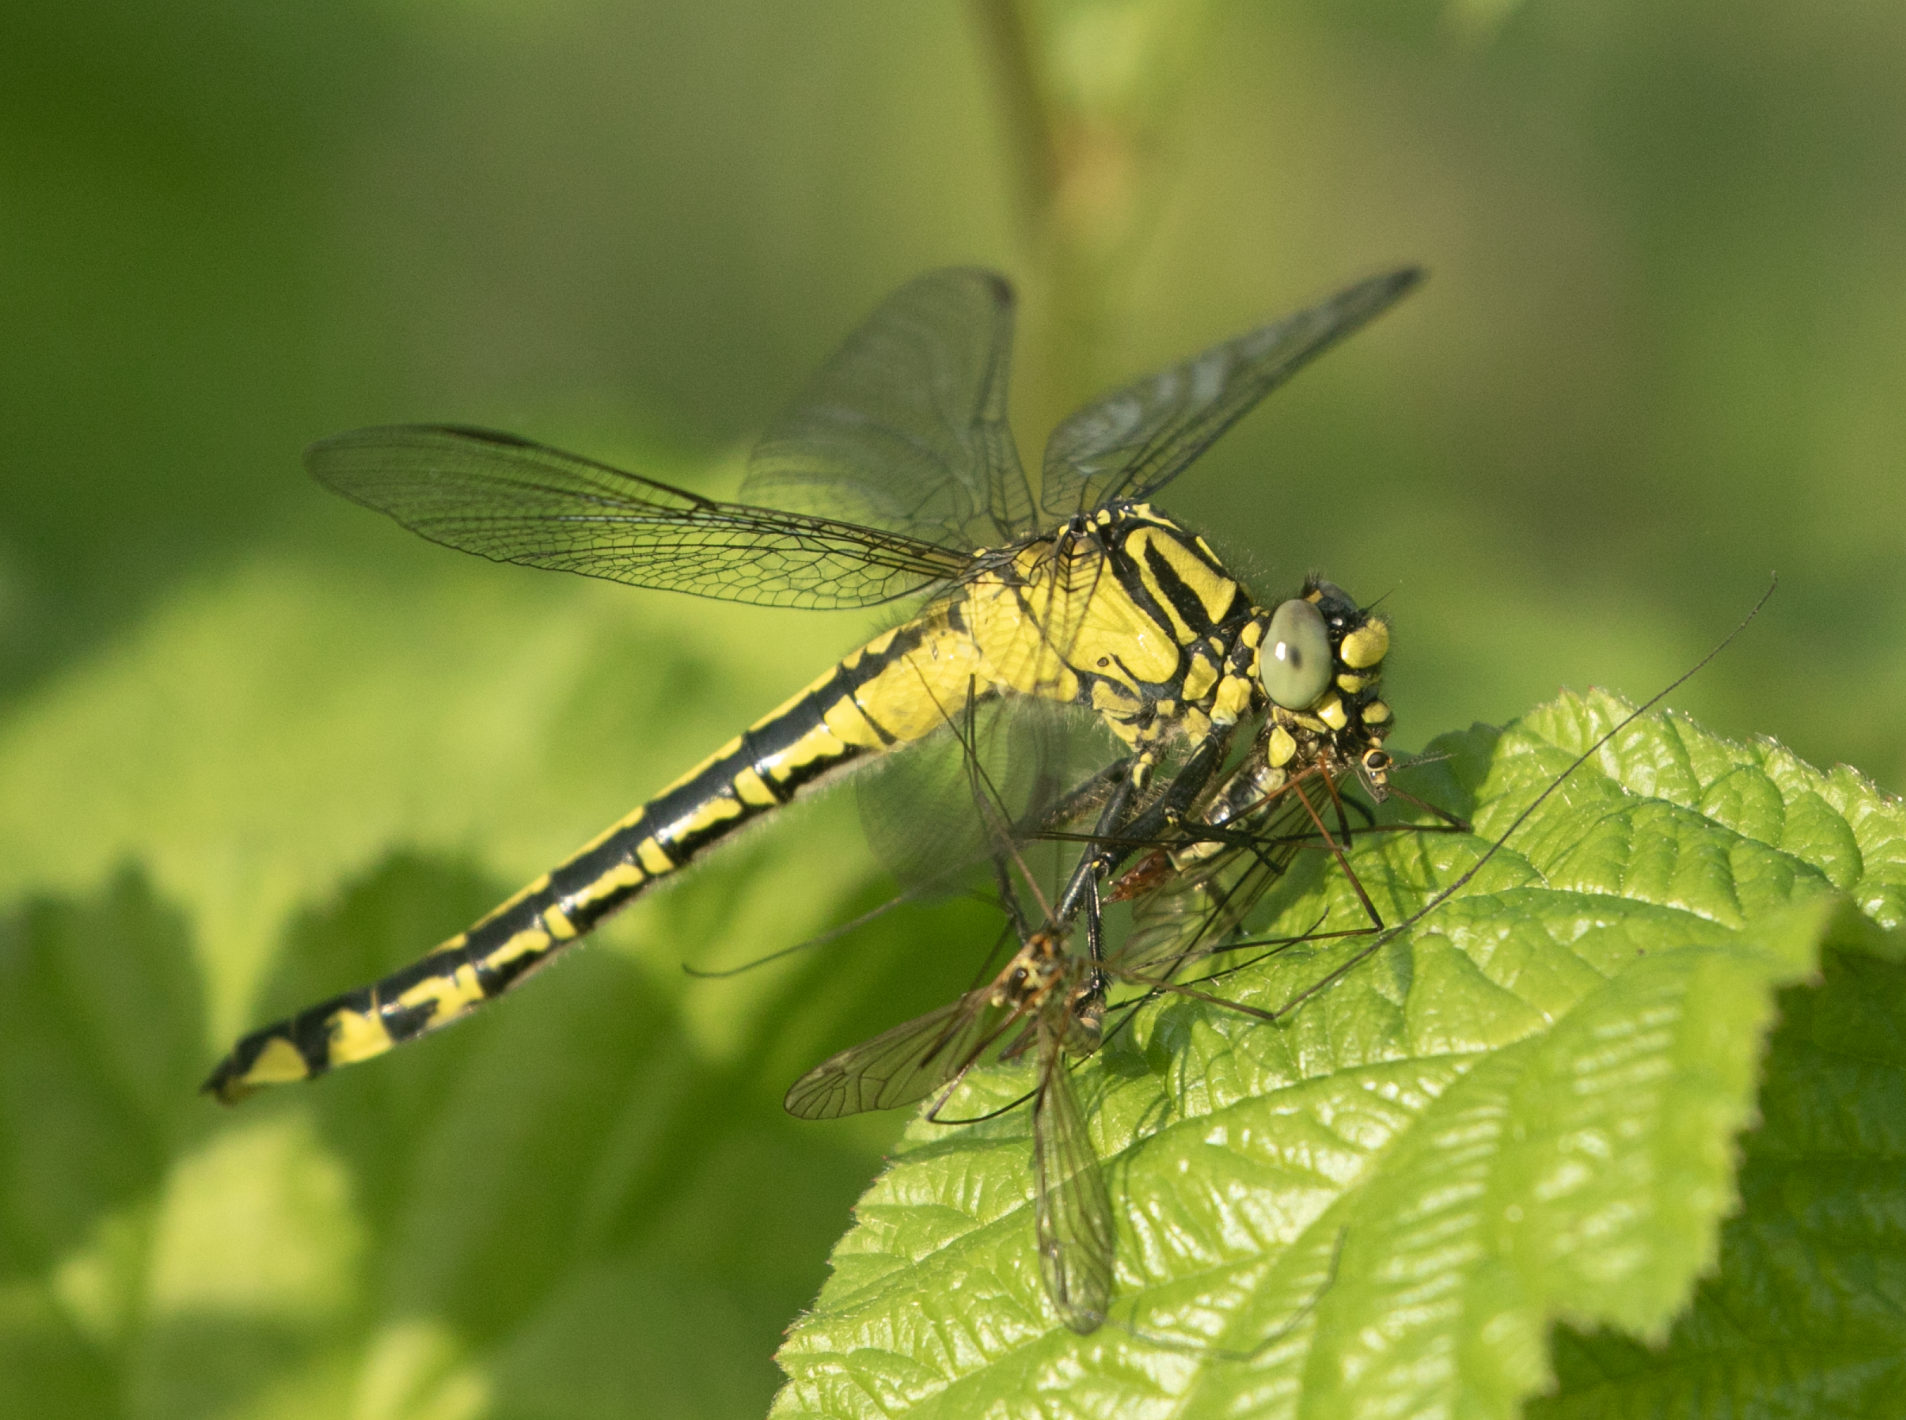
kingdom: Animalia
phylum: Arthropoda
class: Insecta
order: Odonata
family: Gomphidae
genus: Gomphus
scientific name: Gomphus vulgatissimus
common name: Club-tailed dragonfly
